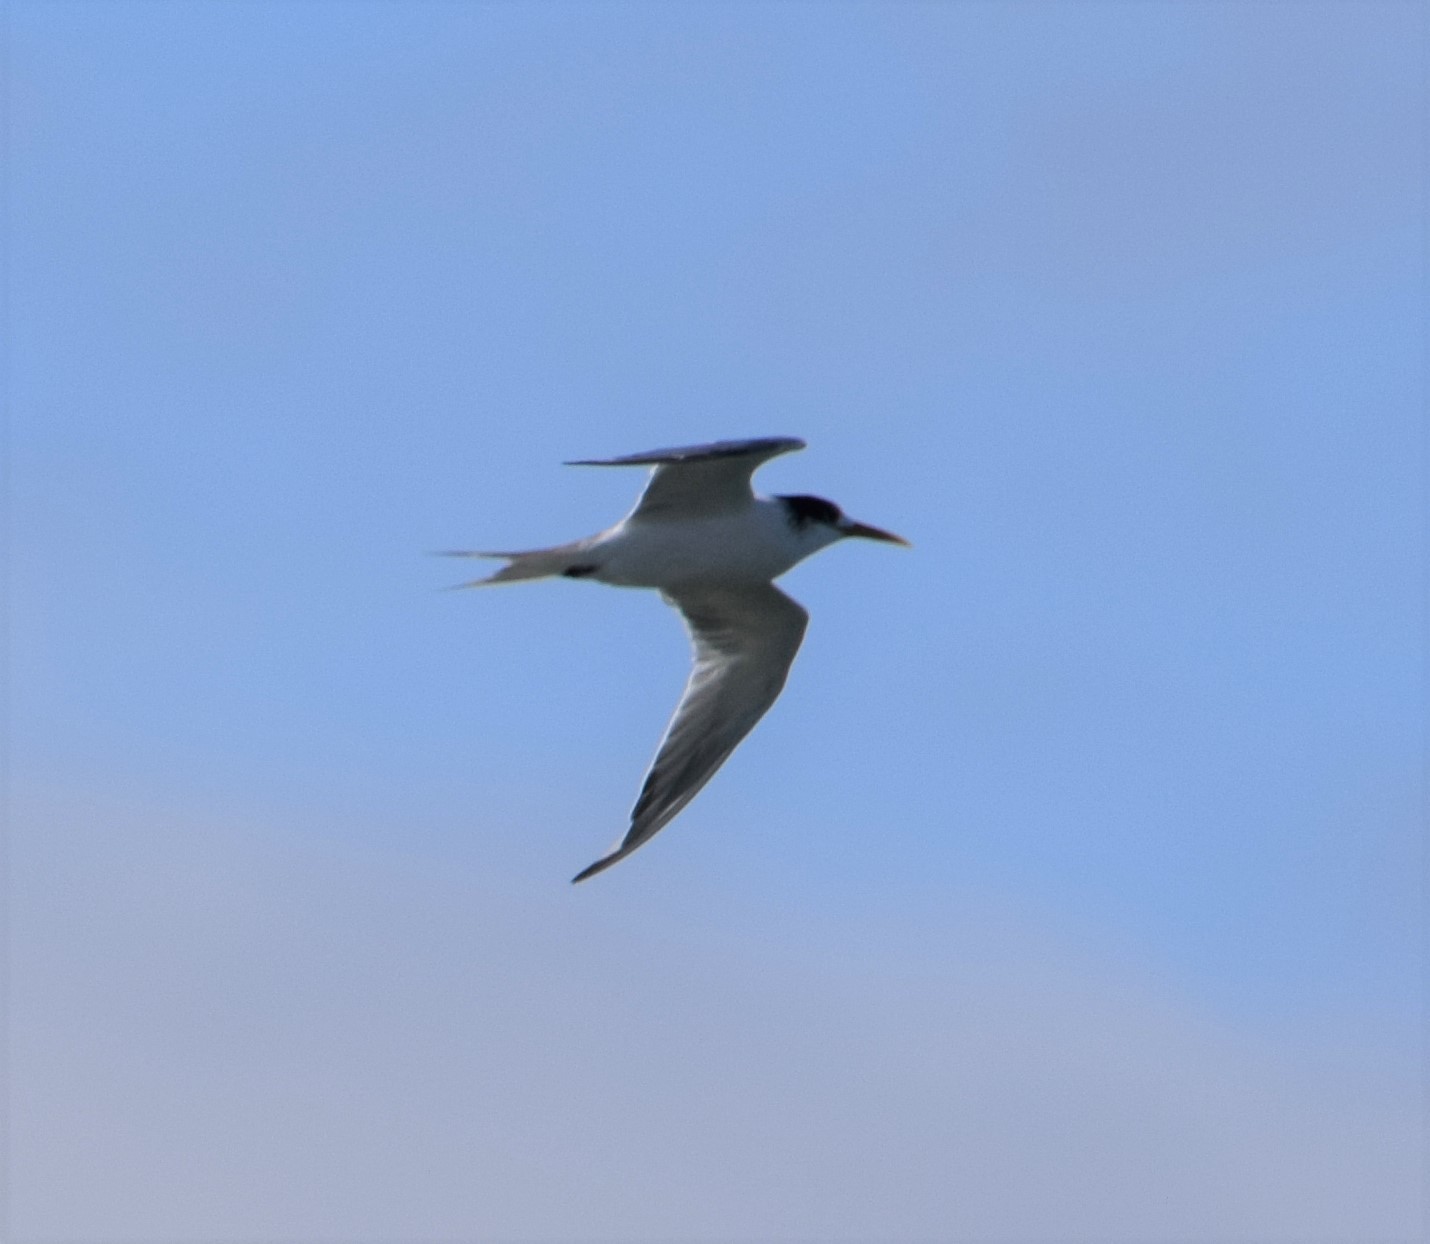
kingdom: Animalia
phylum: Chordata
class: Aves
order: Charadriiformes
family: Laridae
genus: Thalasseus
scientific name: Thalasseus bergii
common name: Greater crested tern
